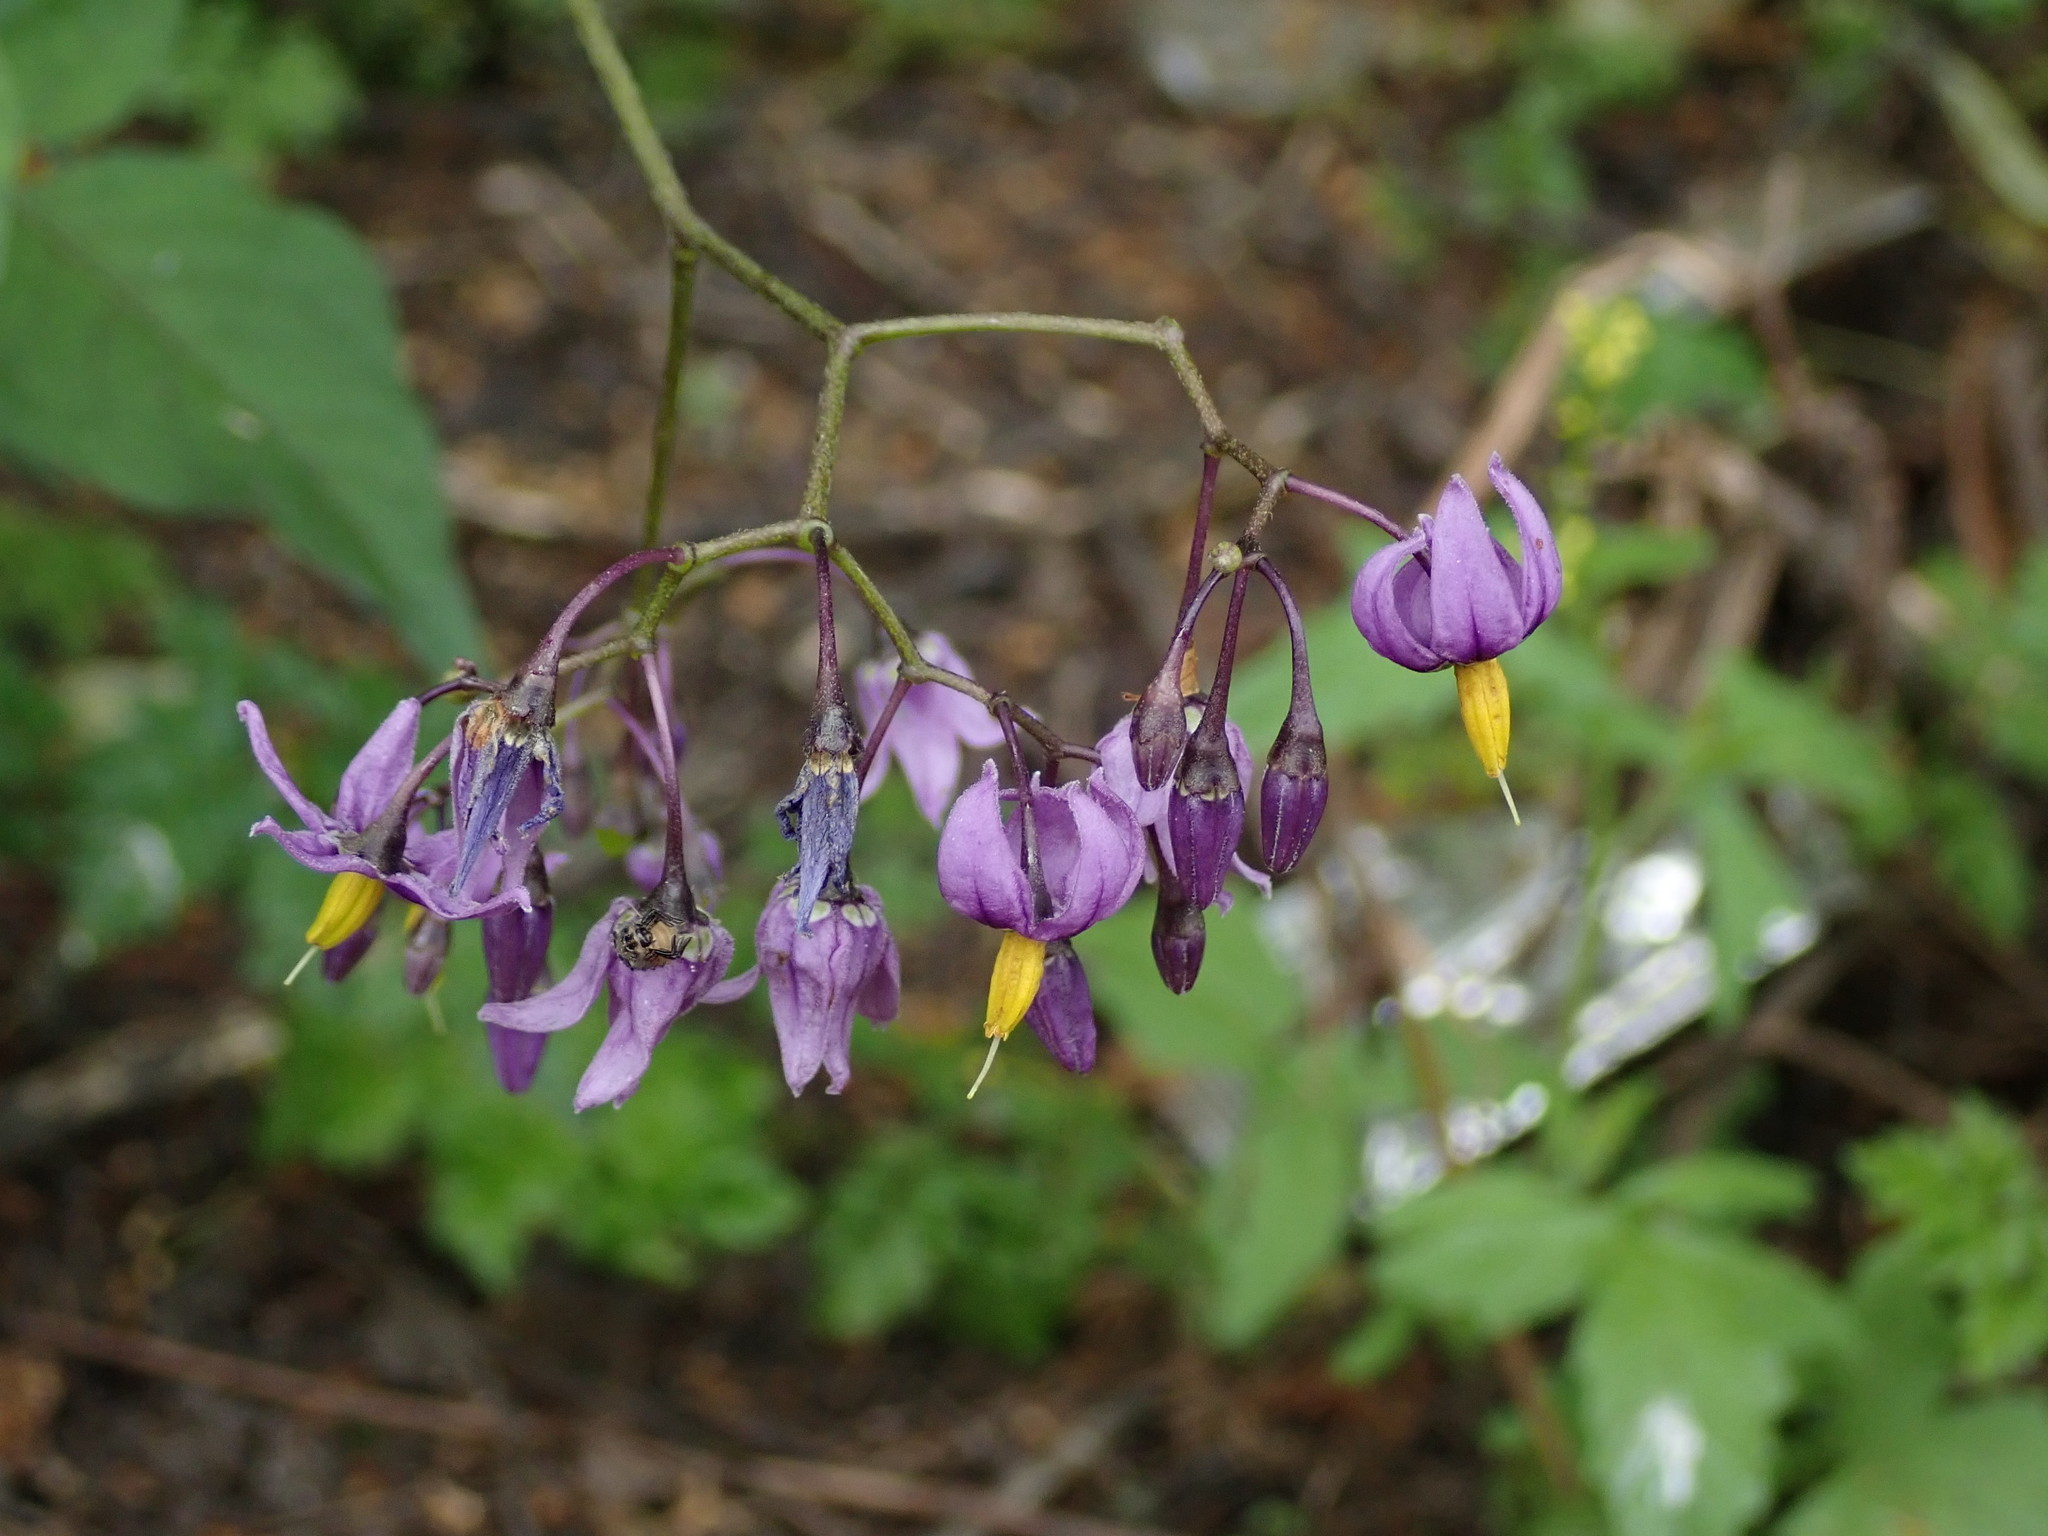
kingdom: Plantae
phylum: Tracheophyta
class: Magnoliopsida
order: Solanales
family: Solanaceae
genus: Solanum
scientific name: Solanum dulcamara
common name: Climbing nightshade
